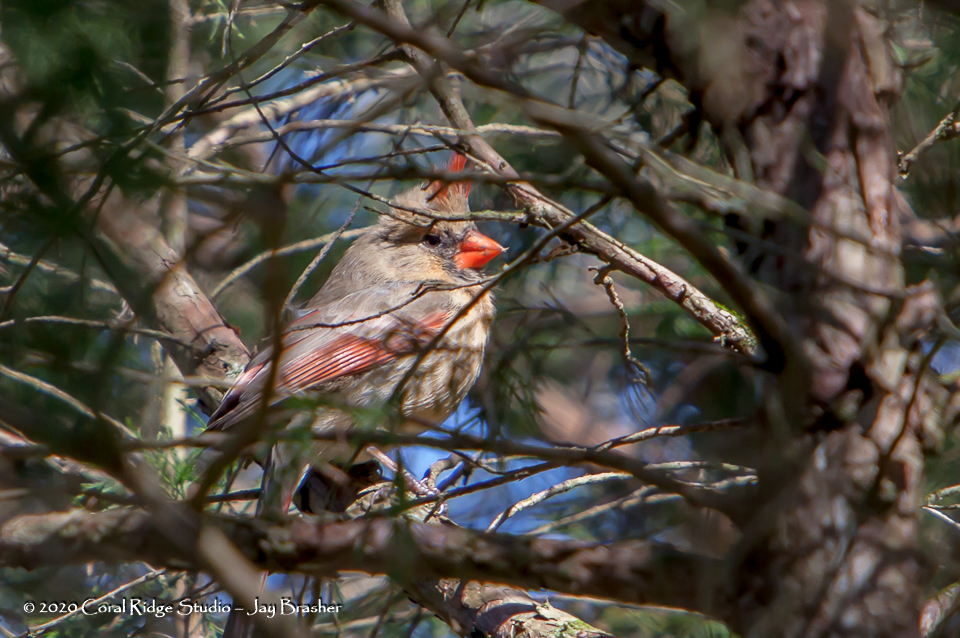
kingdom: Animalia
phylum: Chordata
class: Aves
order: Passeriformes
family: Cardinalidae
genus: Cardinalis
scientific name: Cardinalis cardinalis
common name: Northern cardinal
